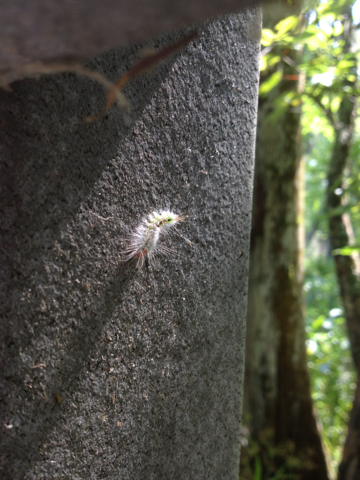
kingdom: Animalia
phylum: Arthropoda
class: Insecta
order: Lepidoptera
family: Erebidae
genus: Orgyia
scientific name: Orgyia leucostigma
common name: White-marked tussock moth
